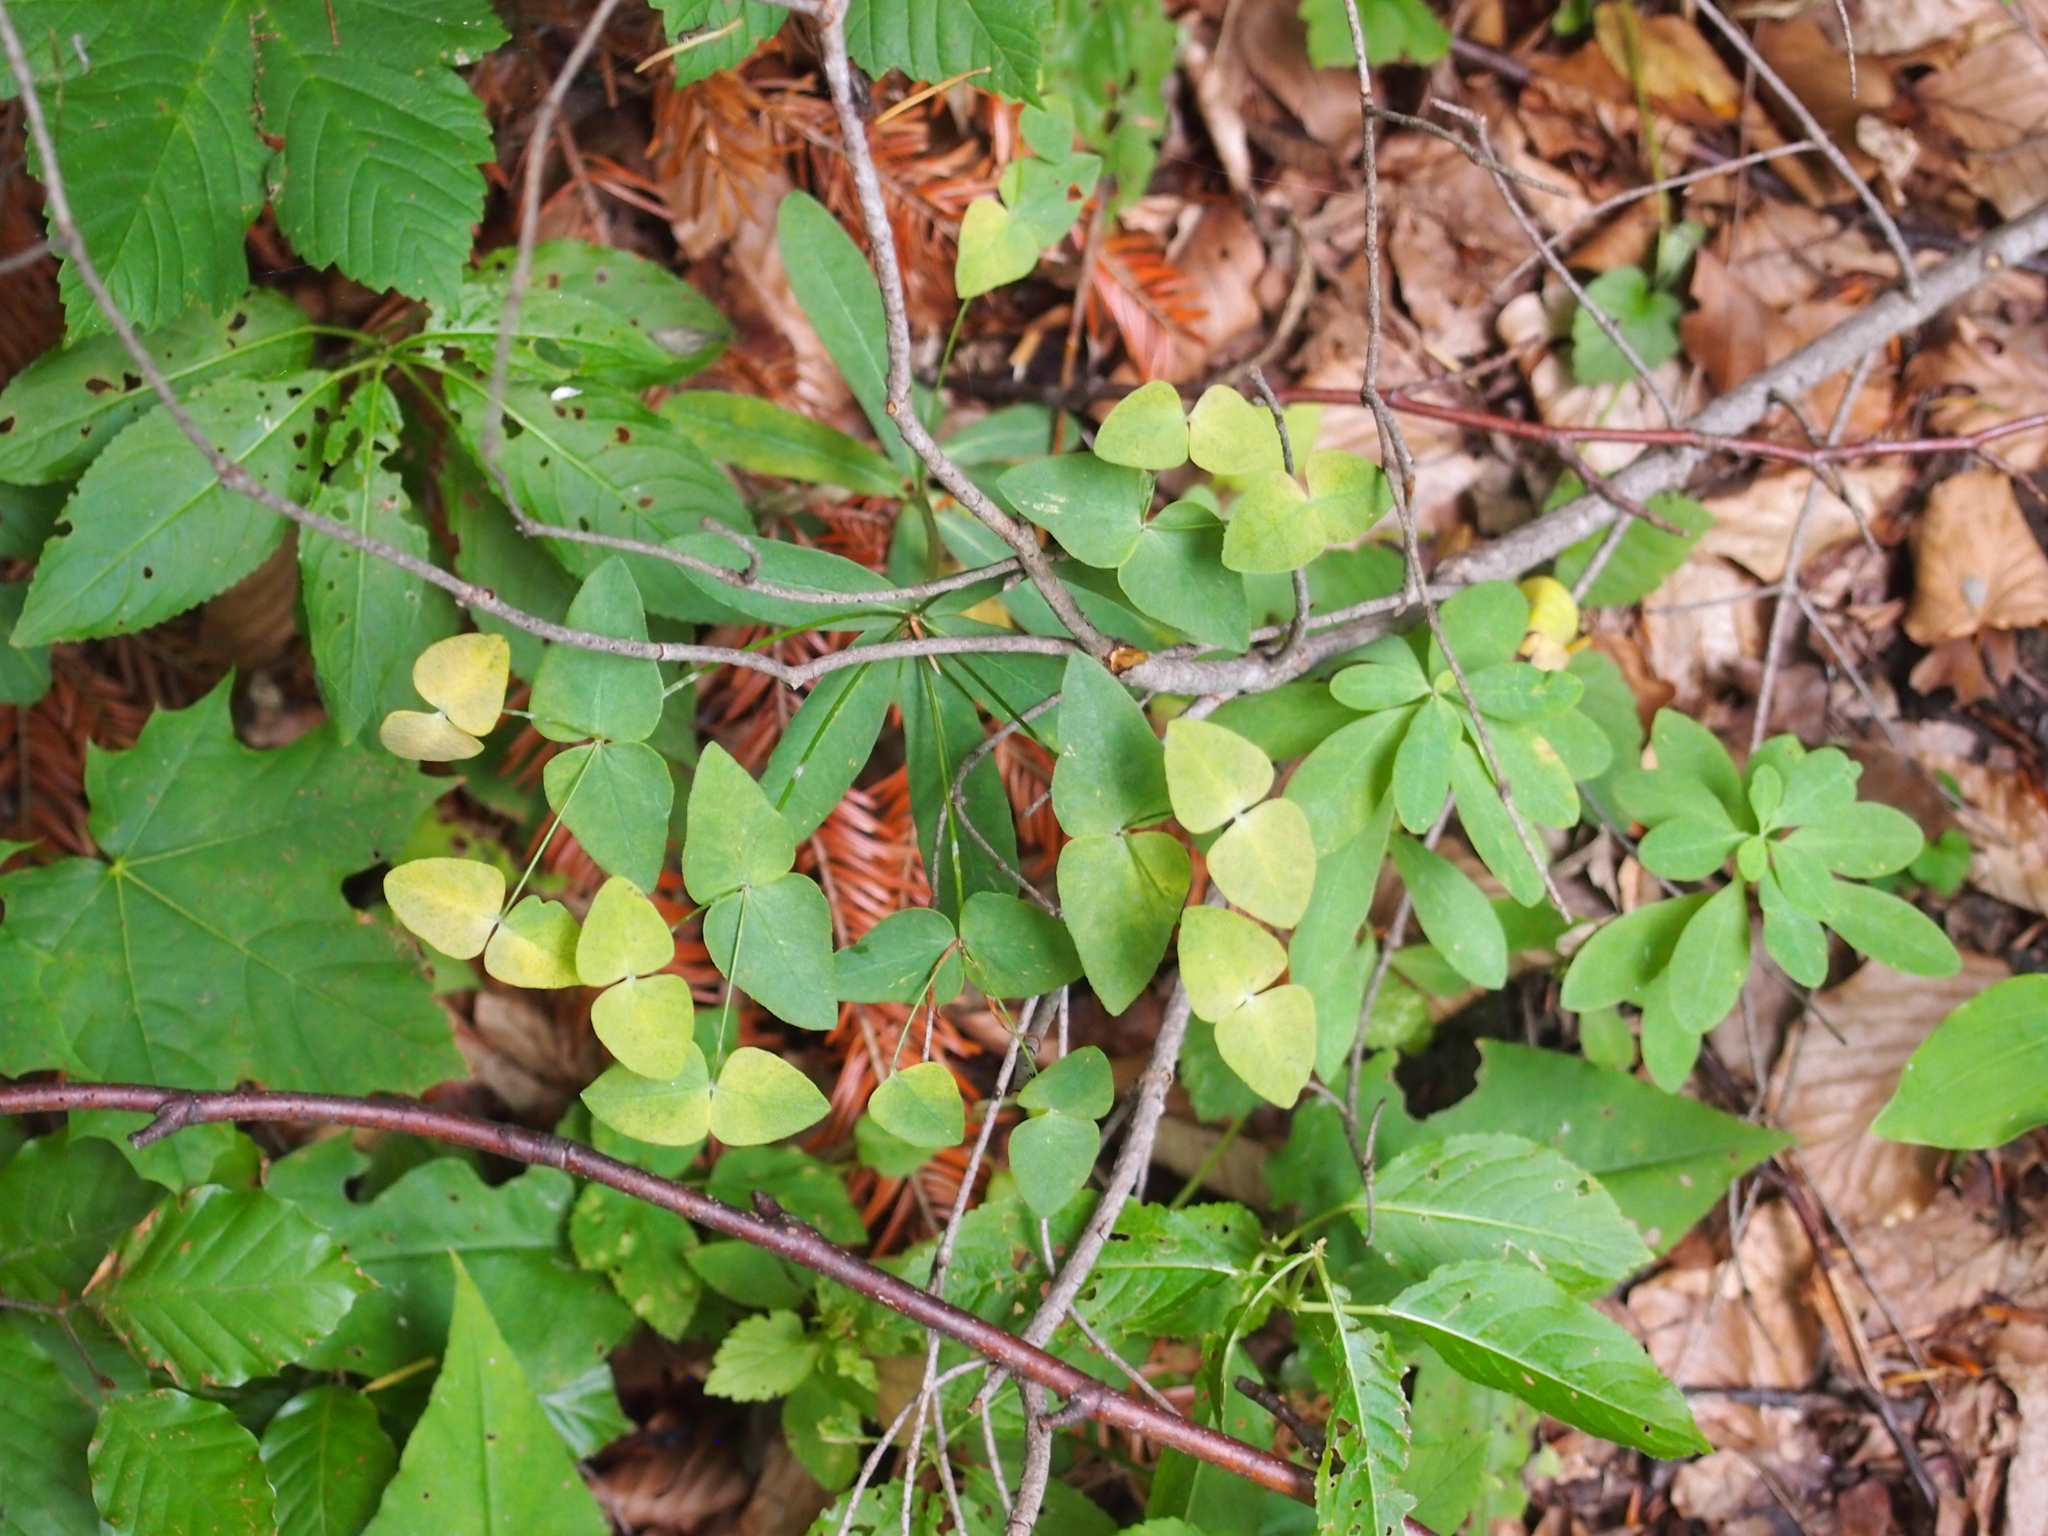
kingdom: Plantae
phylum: Tracheophyta
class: Magnoliopsida
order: Malpighiales
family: Euphorbiaceae
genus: Euphorbia
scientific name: Euphorbia dulcis
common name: Sweet spurge
